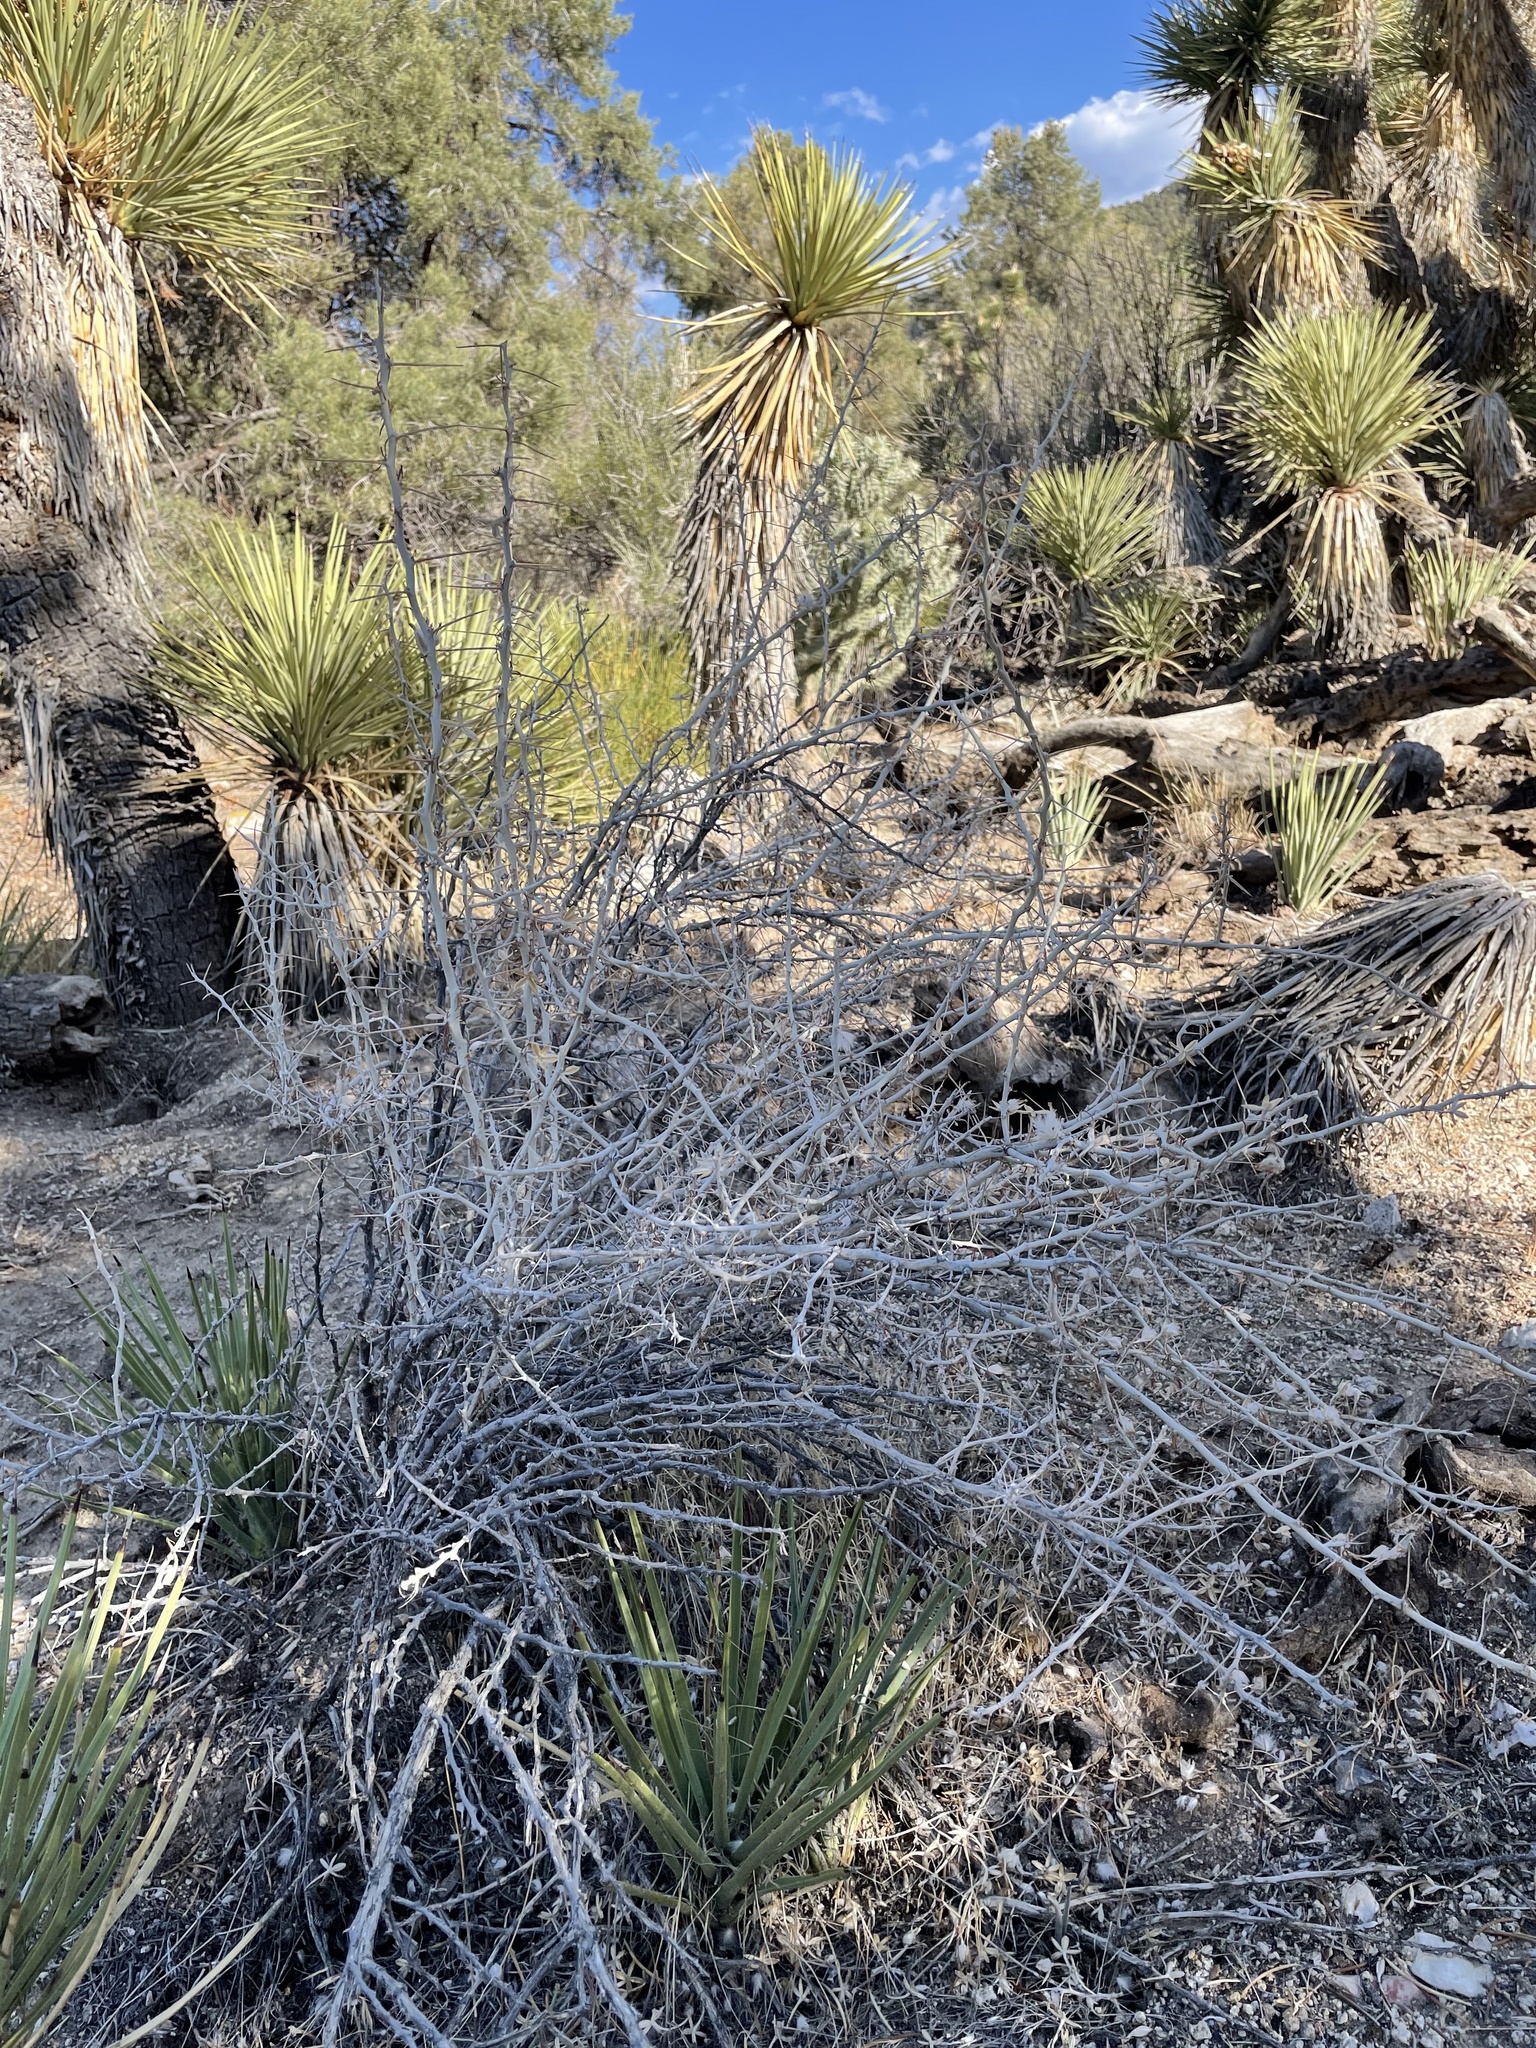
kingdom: Plantae
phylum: Tracheophyta
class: Magnoliopsida
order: Asterales
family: Asteraceae
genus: Tetradymia
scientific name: Tetradymia axillaris
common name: Long-spine horsebrush
